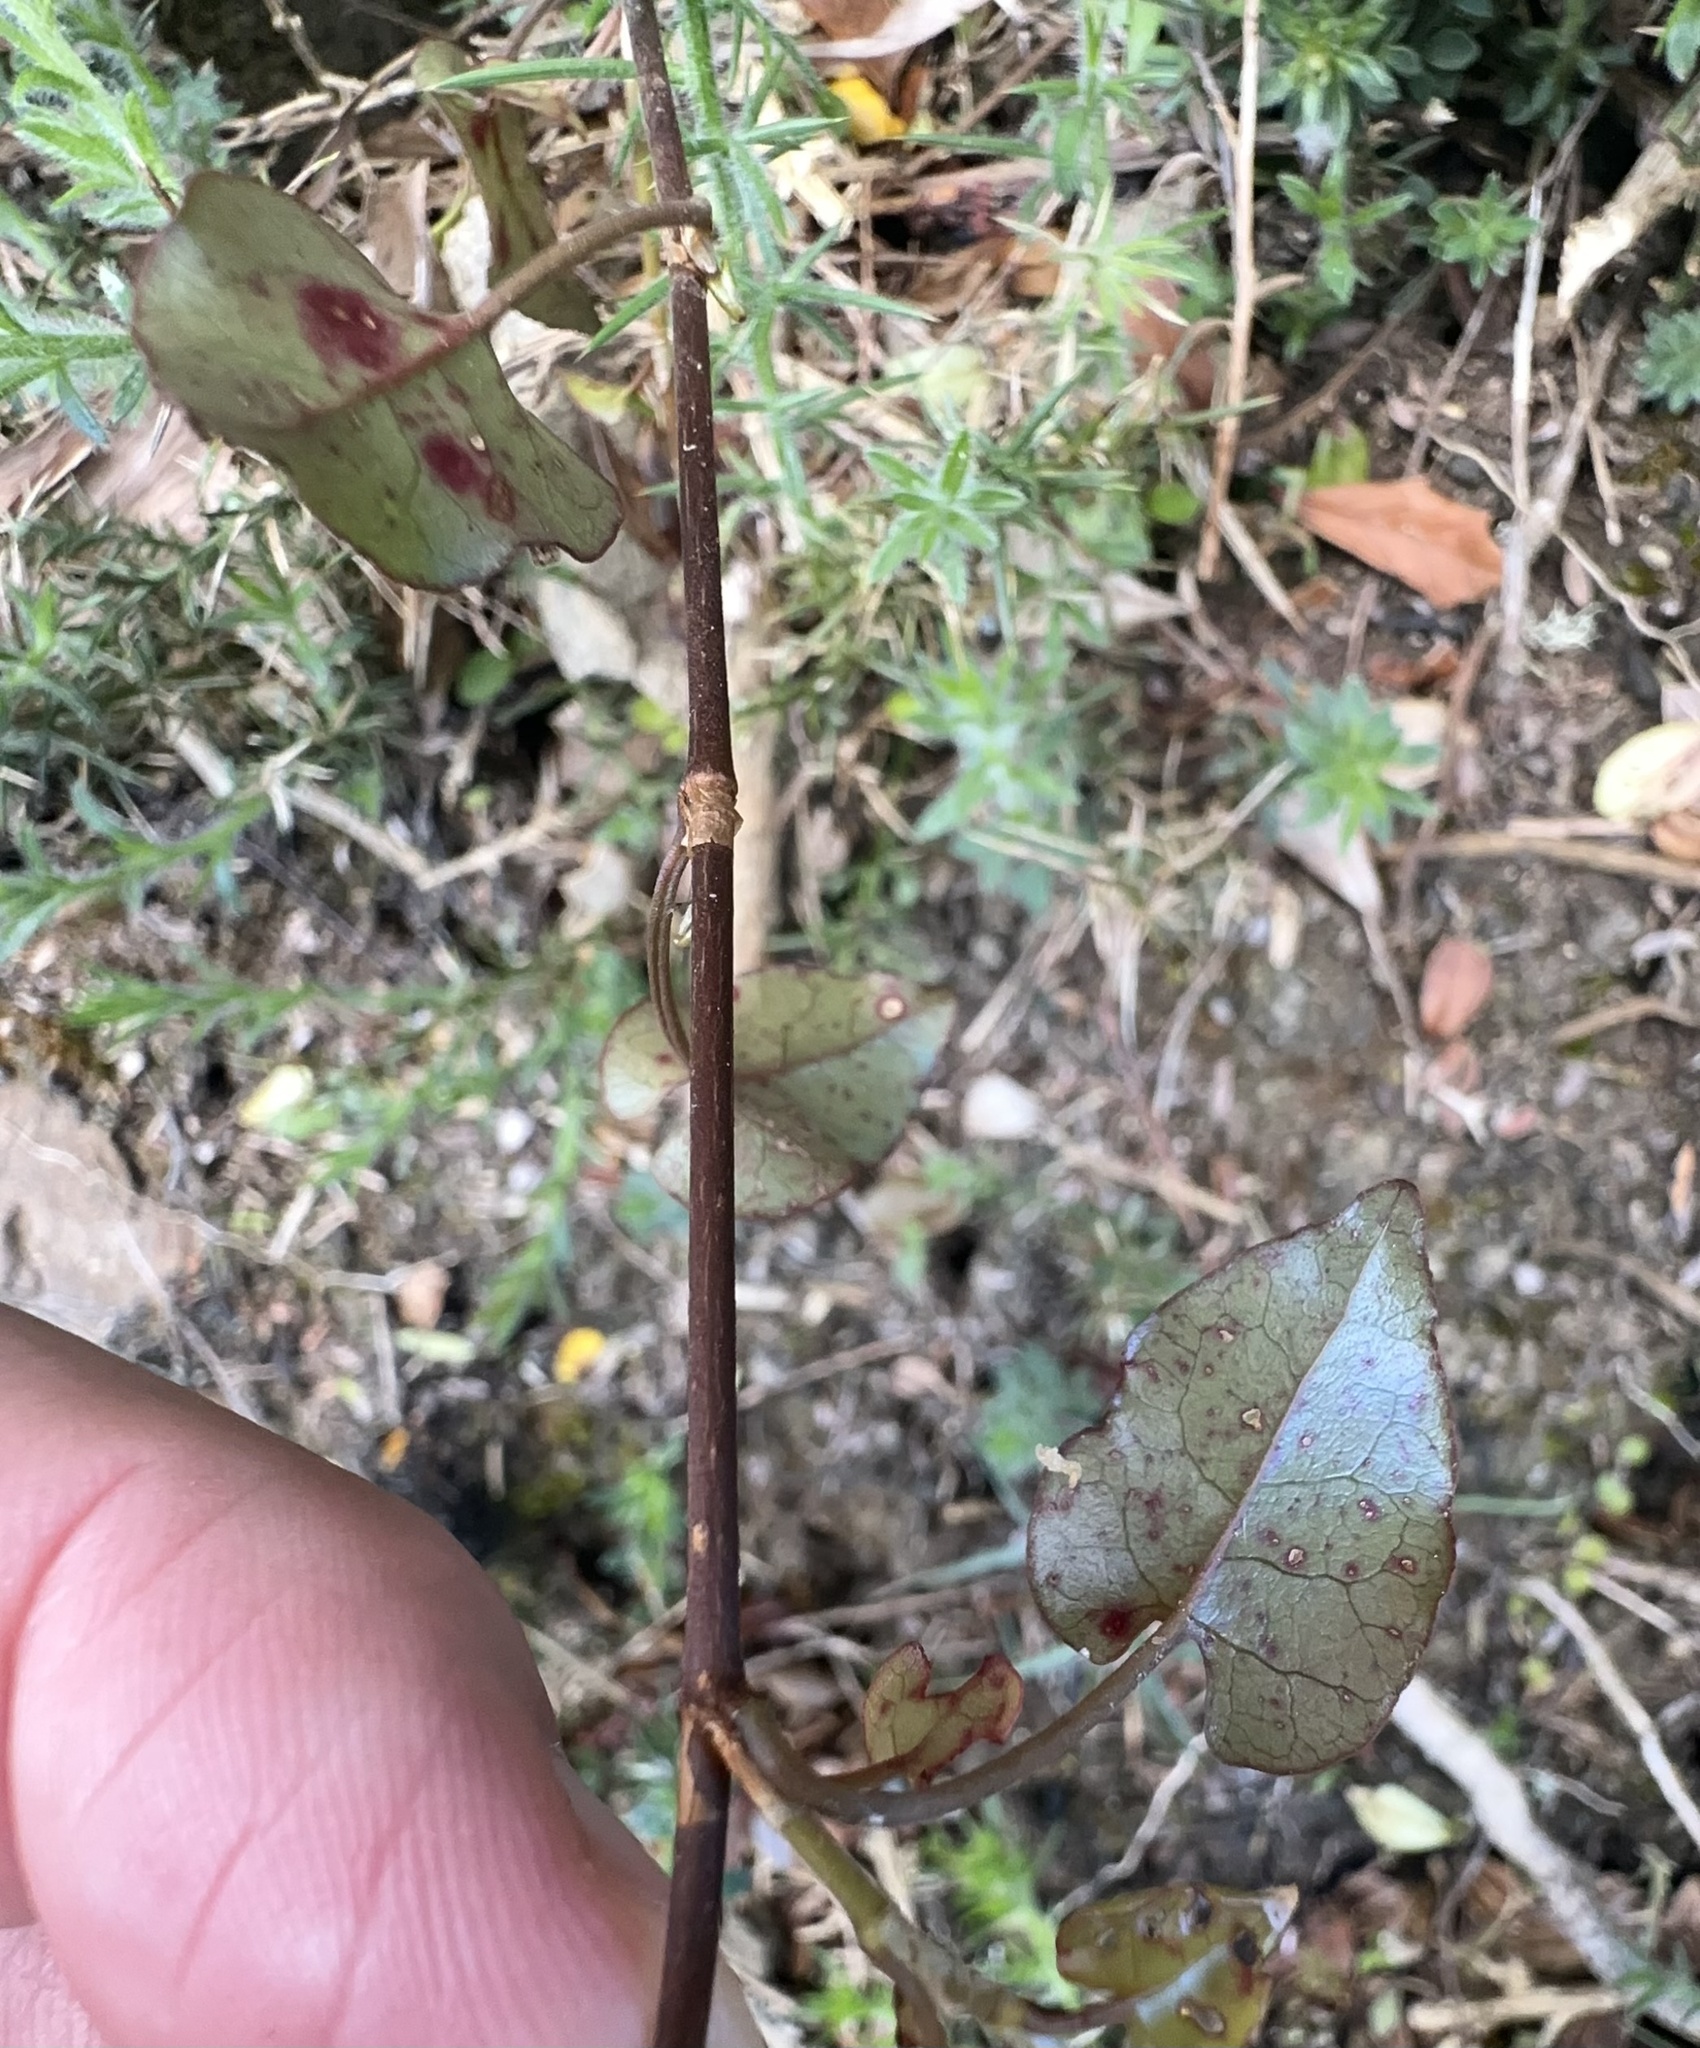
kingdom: Plantae
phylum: Tracheophyta
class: Magnoliopsida
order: Caryophyllales
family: Polygonaceae
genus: Muehlenbeckia
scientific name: Muehlenbeckia australis
